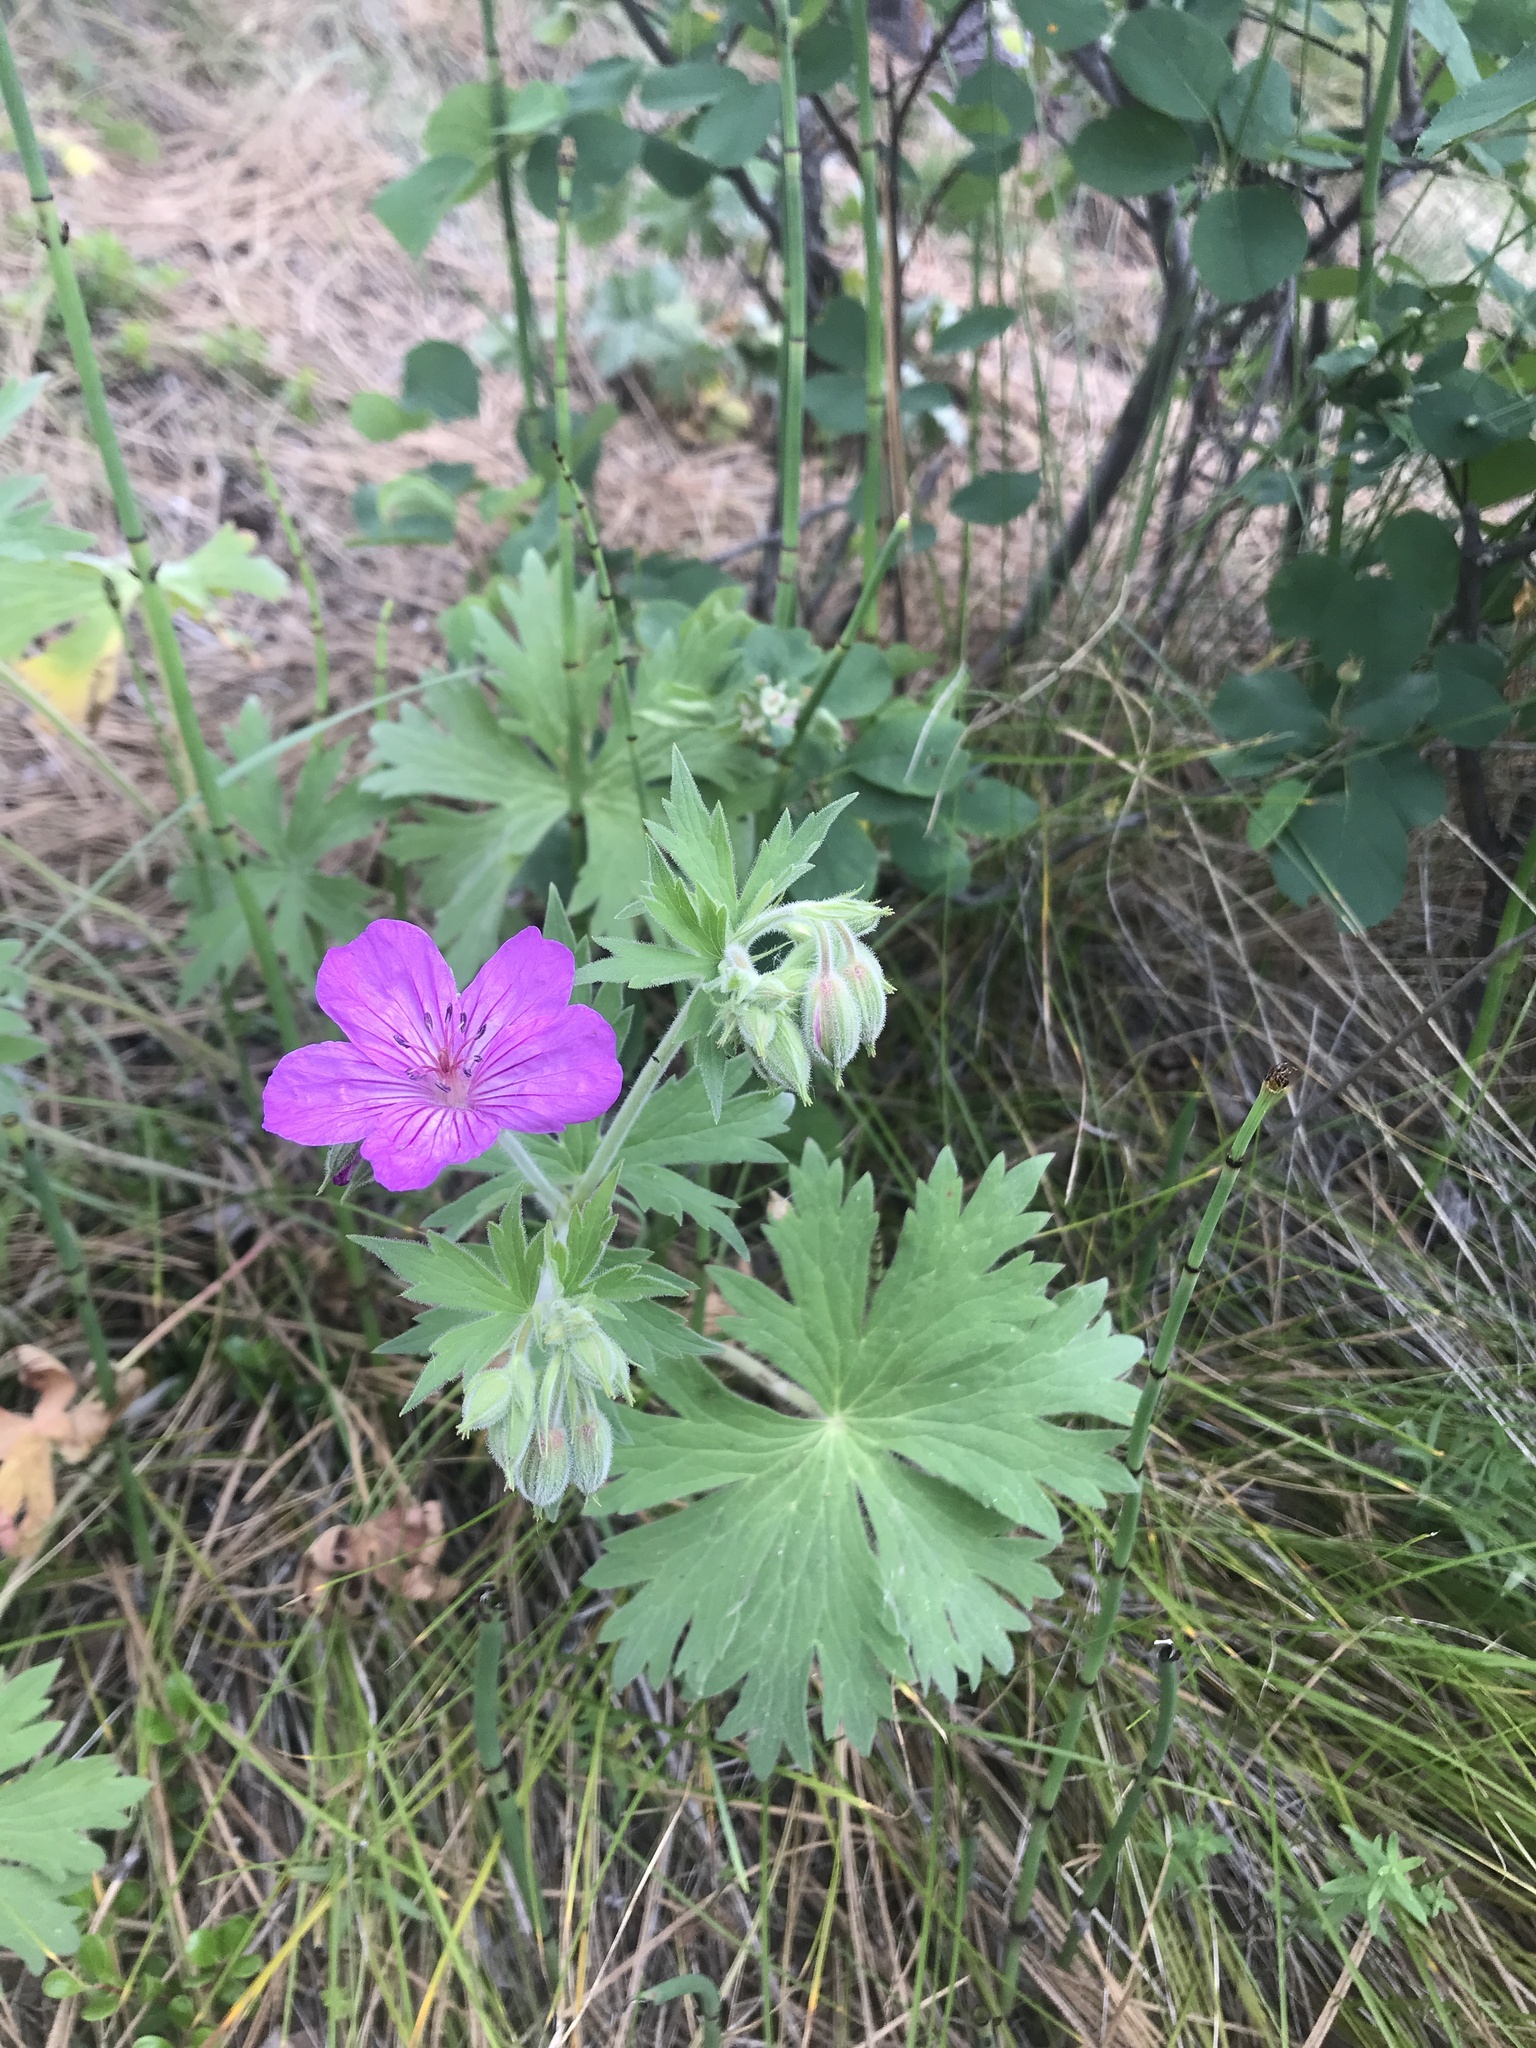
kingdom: Plantae
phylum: Tracheophyta
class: Magnoliopsida
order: Geraniales
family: Geraniaceae
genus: Geranium
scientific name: Geranium viscosissimum
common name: Purple geranium
